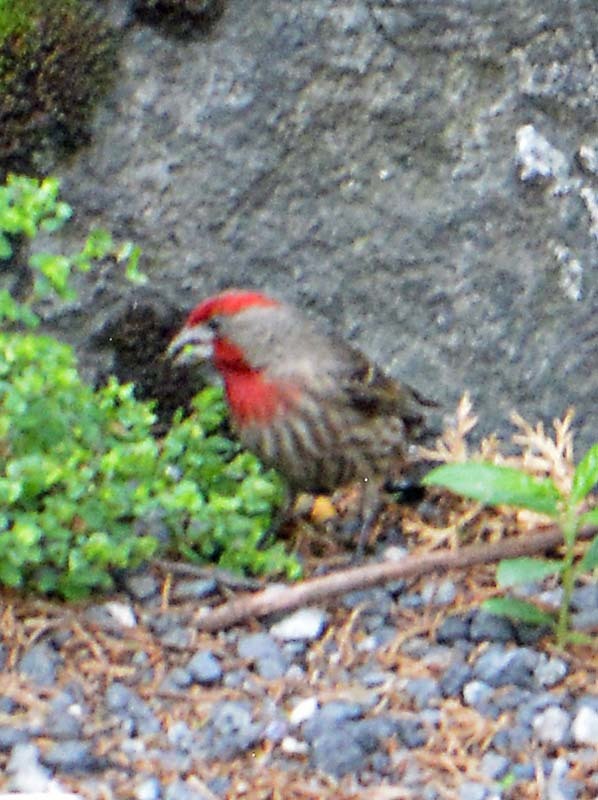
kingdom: Animalia
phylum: Chordata
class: Aves
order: Passeriformes
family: Fringillidae
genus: Haemorhous
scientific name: Haemorhous mexicanus
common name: House finch
